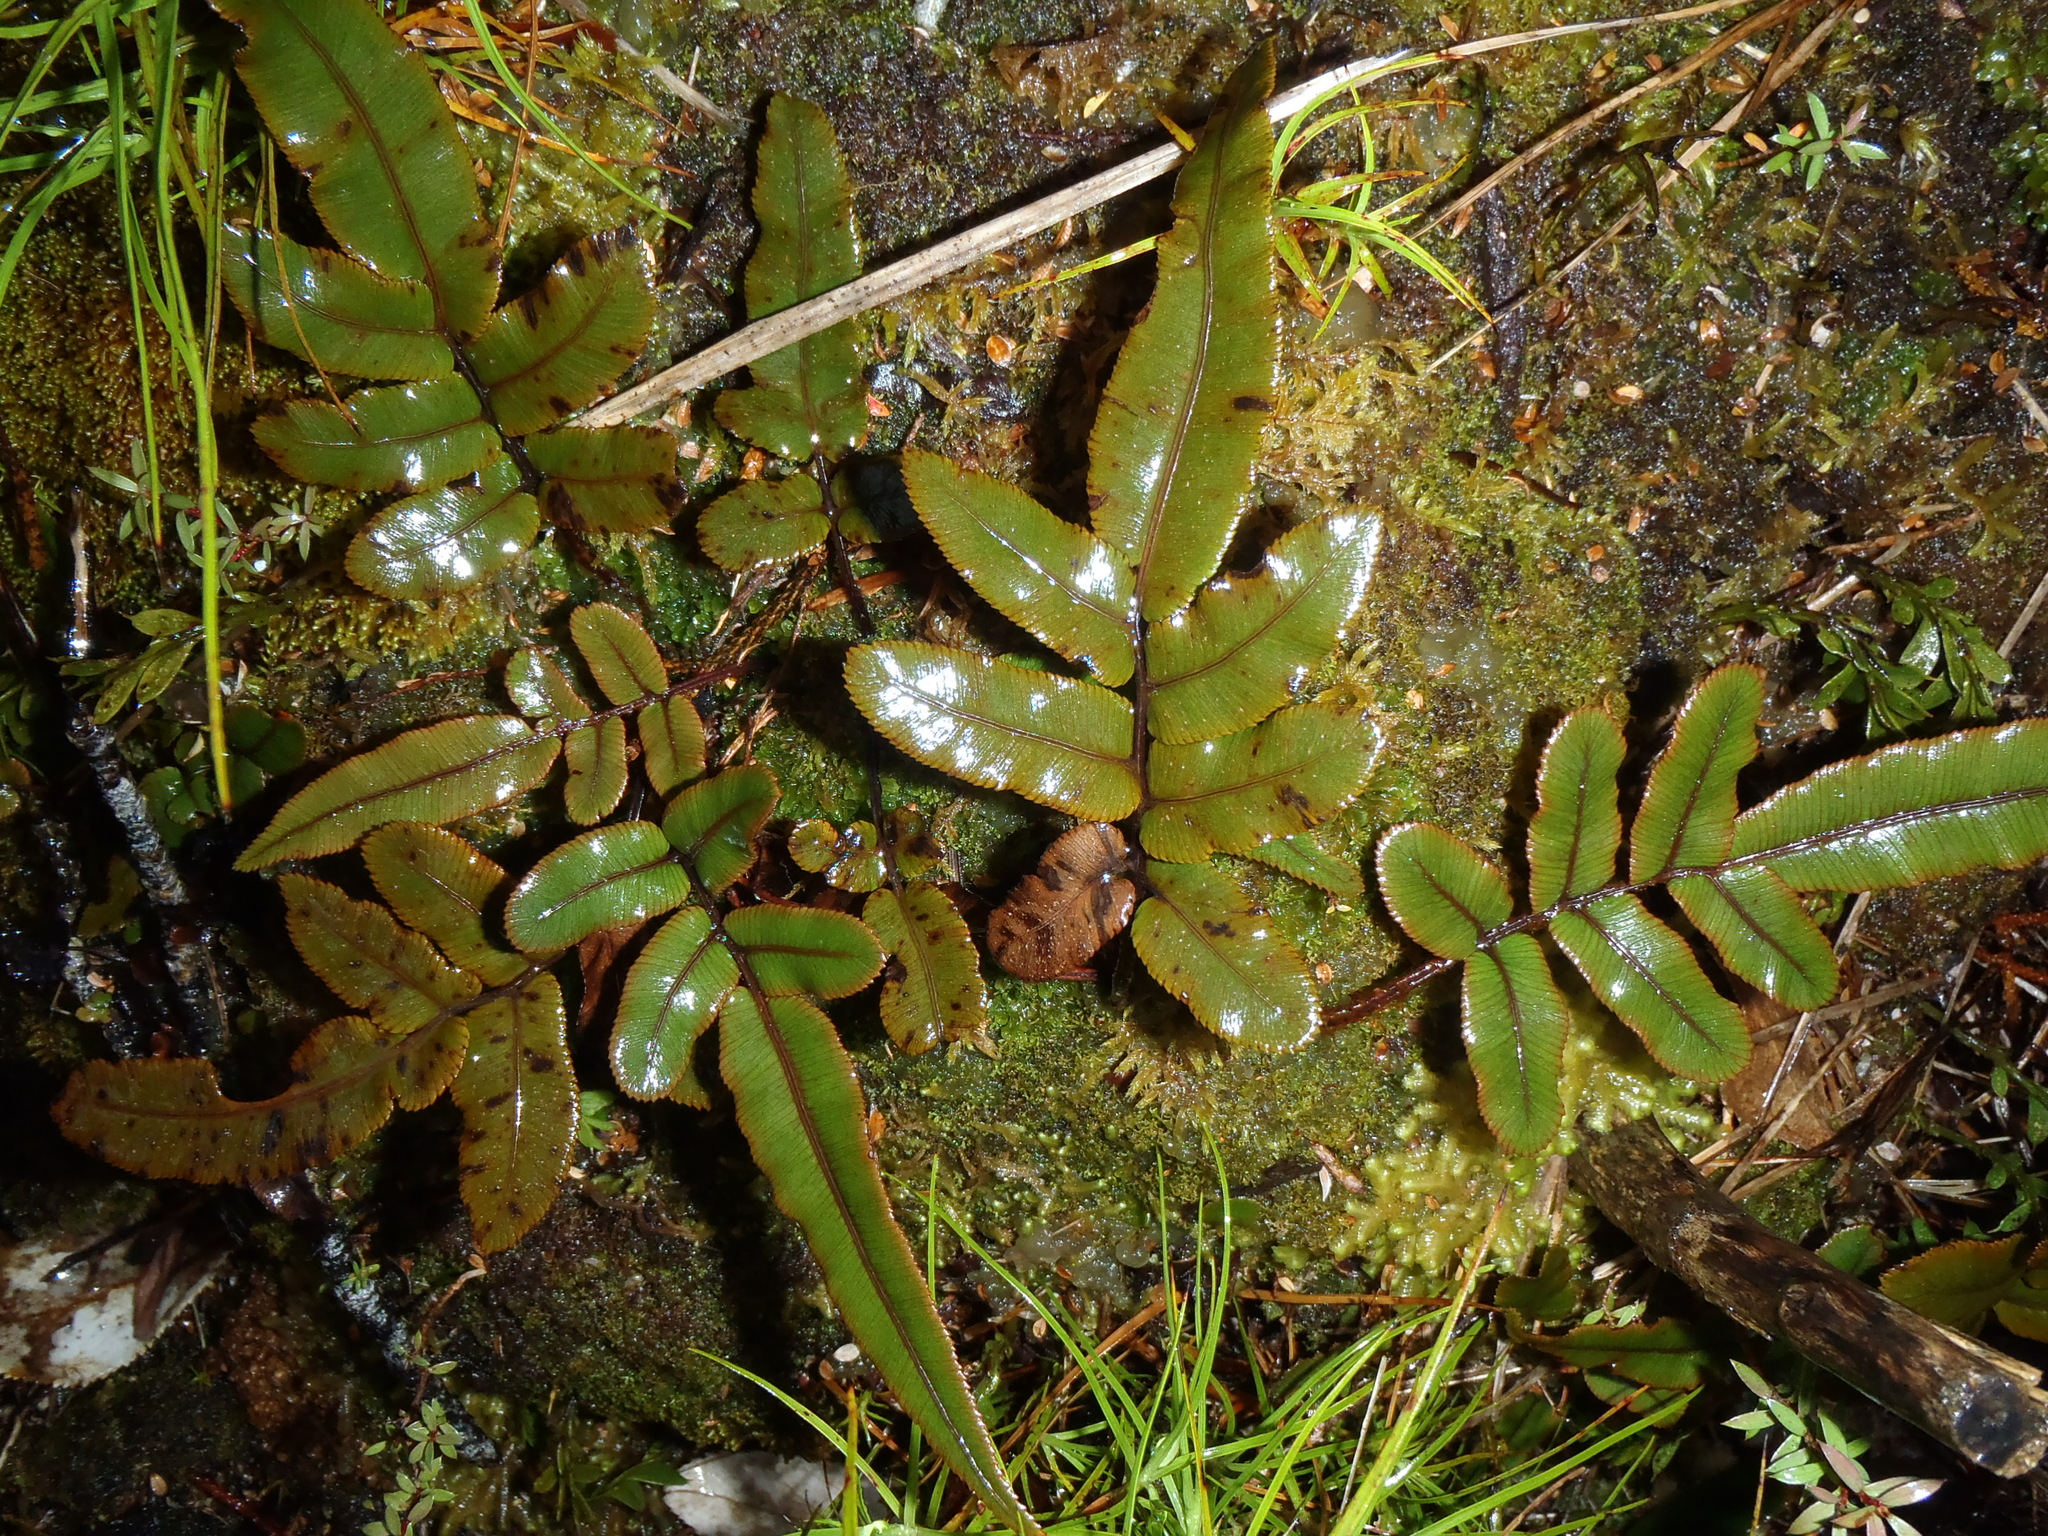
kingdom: Plantae
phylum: Tracheophyta
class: Polypodiopsida
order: Polypodiales
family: Blechnaceae
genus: Parablechnum
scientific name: Parablechnum procerum
